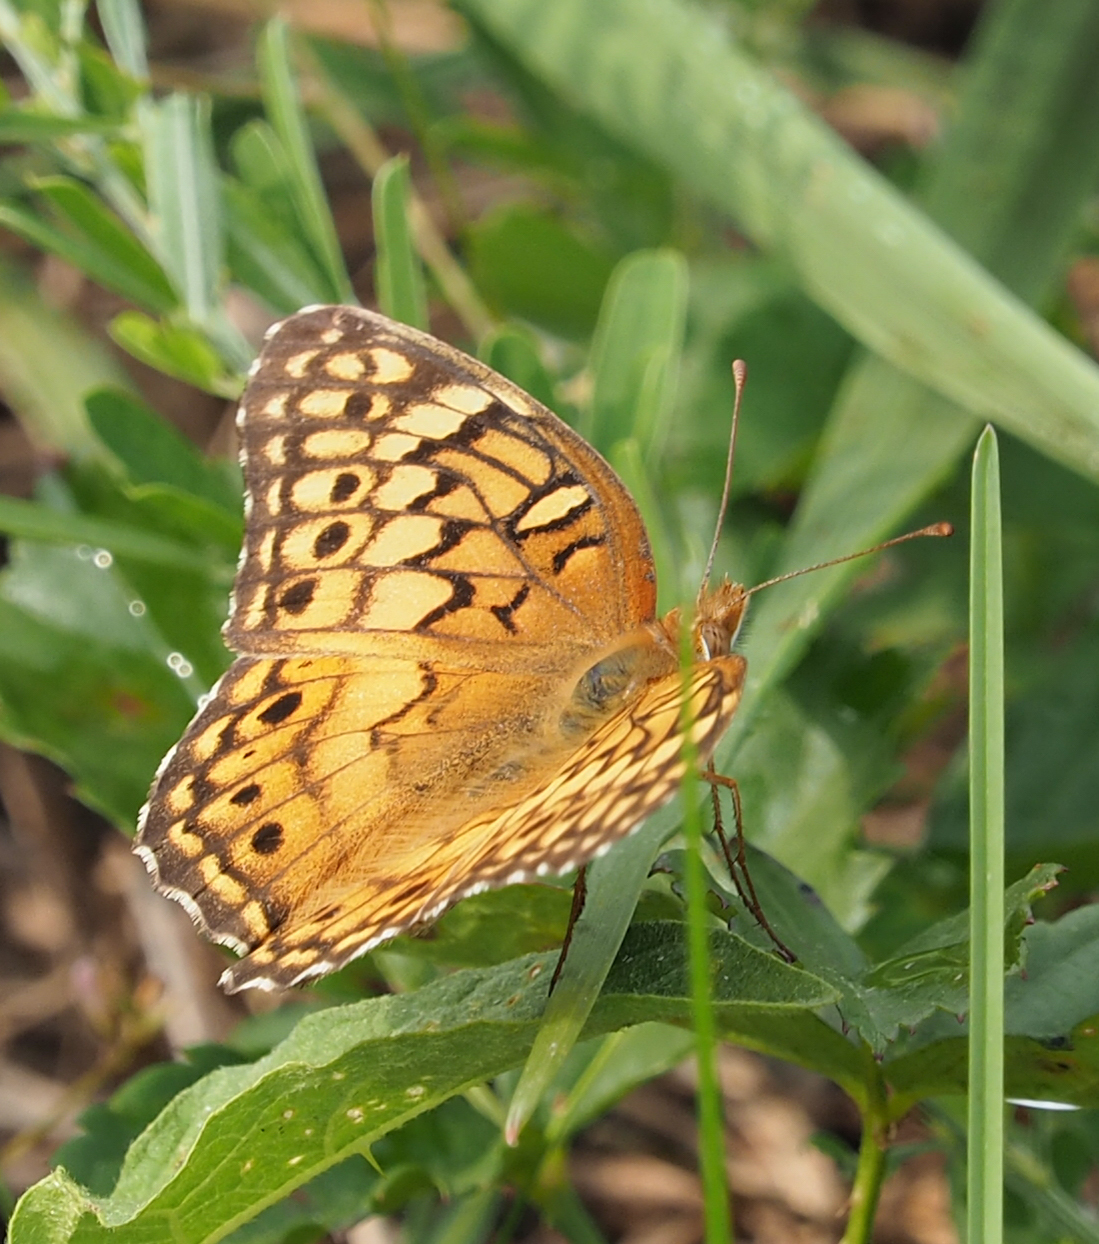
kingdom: Animalia
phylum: Arthropoda
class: Insecta
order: Lepidoptera
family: Nymphalidae
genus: Euptoieta
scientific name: Euptoieta claudia
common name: Variegated fritillary
